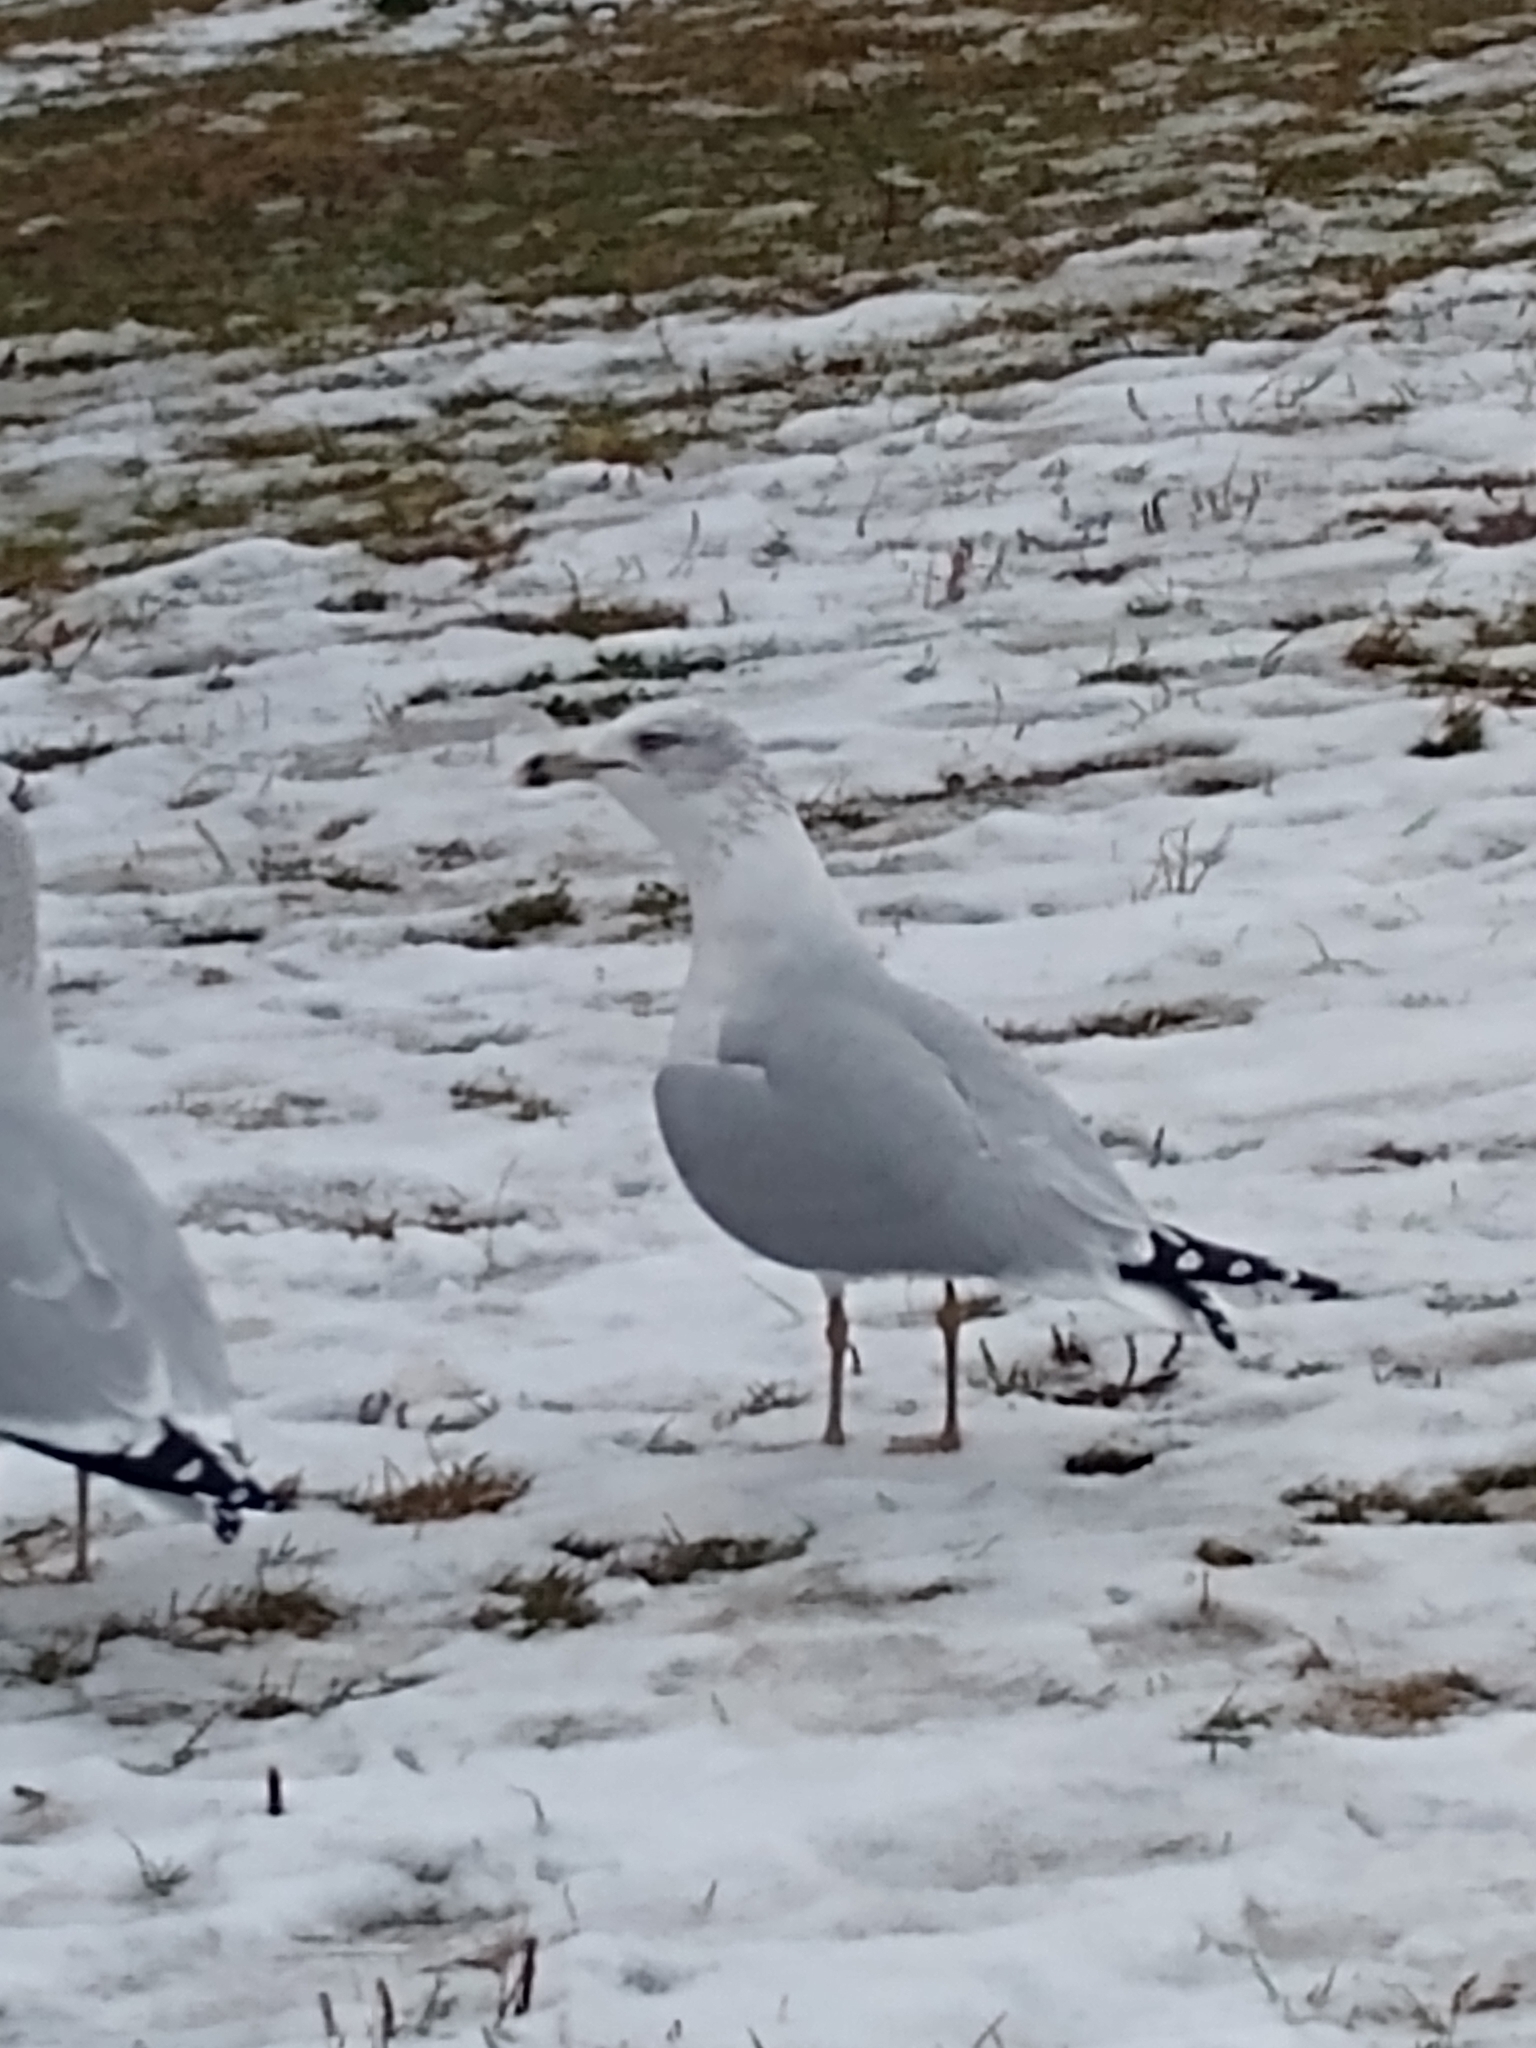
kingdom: Animalia
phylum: Chordata
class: Aves
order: Charadriiformes
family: Laridae
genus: Larus
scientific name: Larus argentatus
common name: Herring gull
